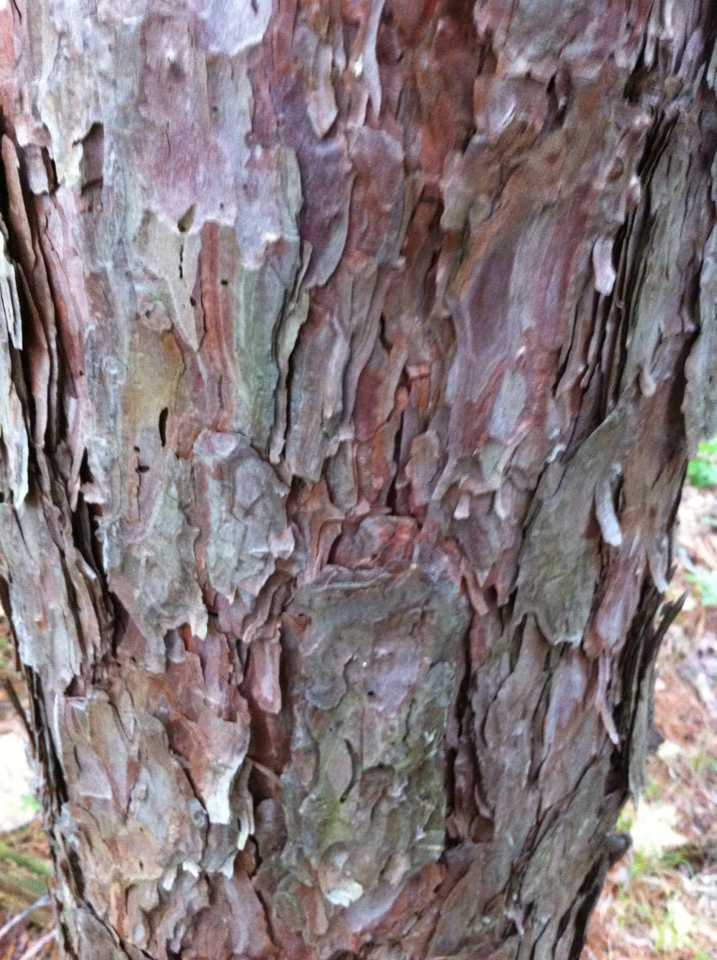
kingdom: Plantae
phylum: Tracheophyta
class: Pinopsida
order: Pinales
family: Pinaceae
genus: Pinus
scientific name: Pinus resinosa
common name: Norway pine
